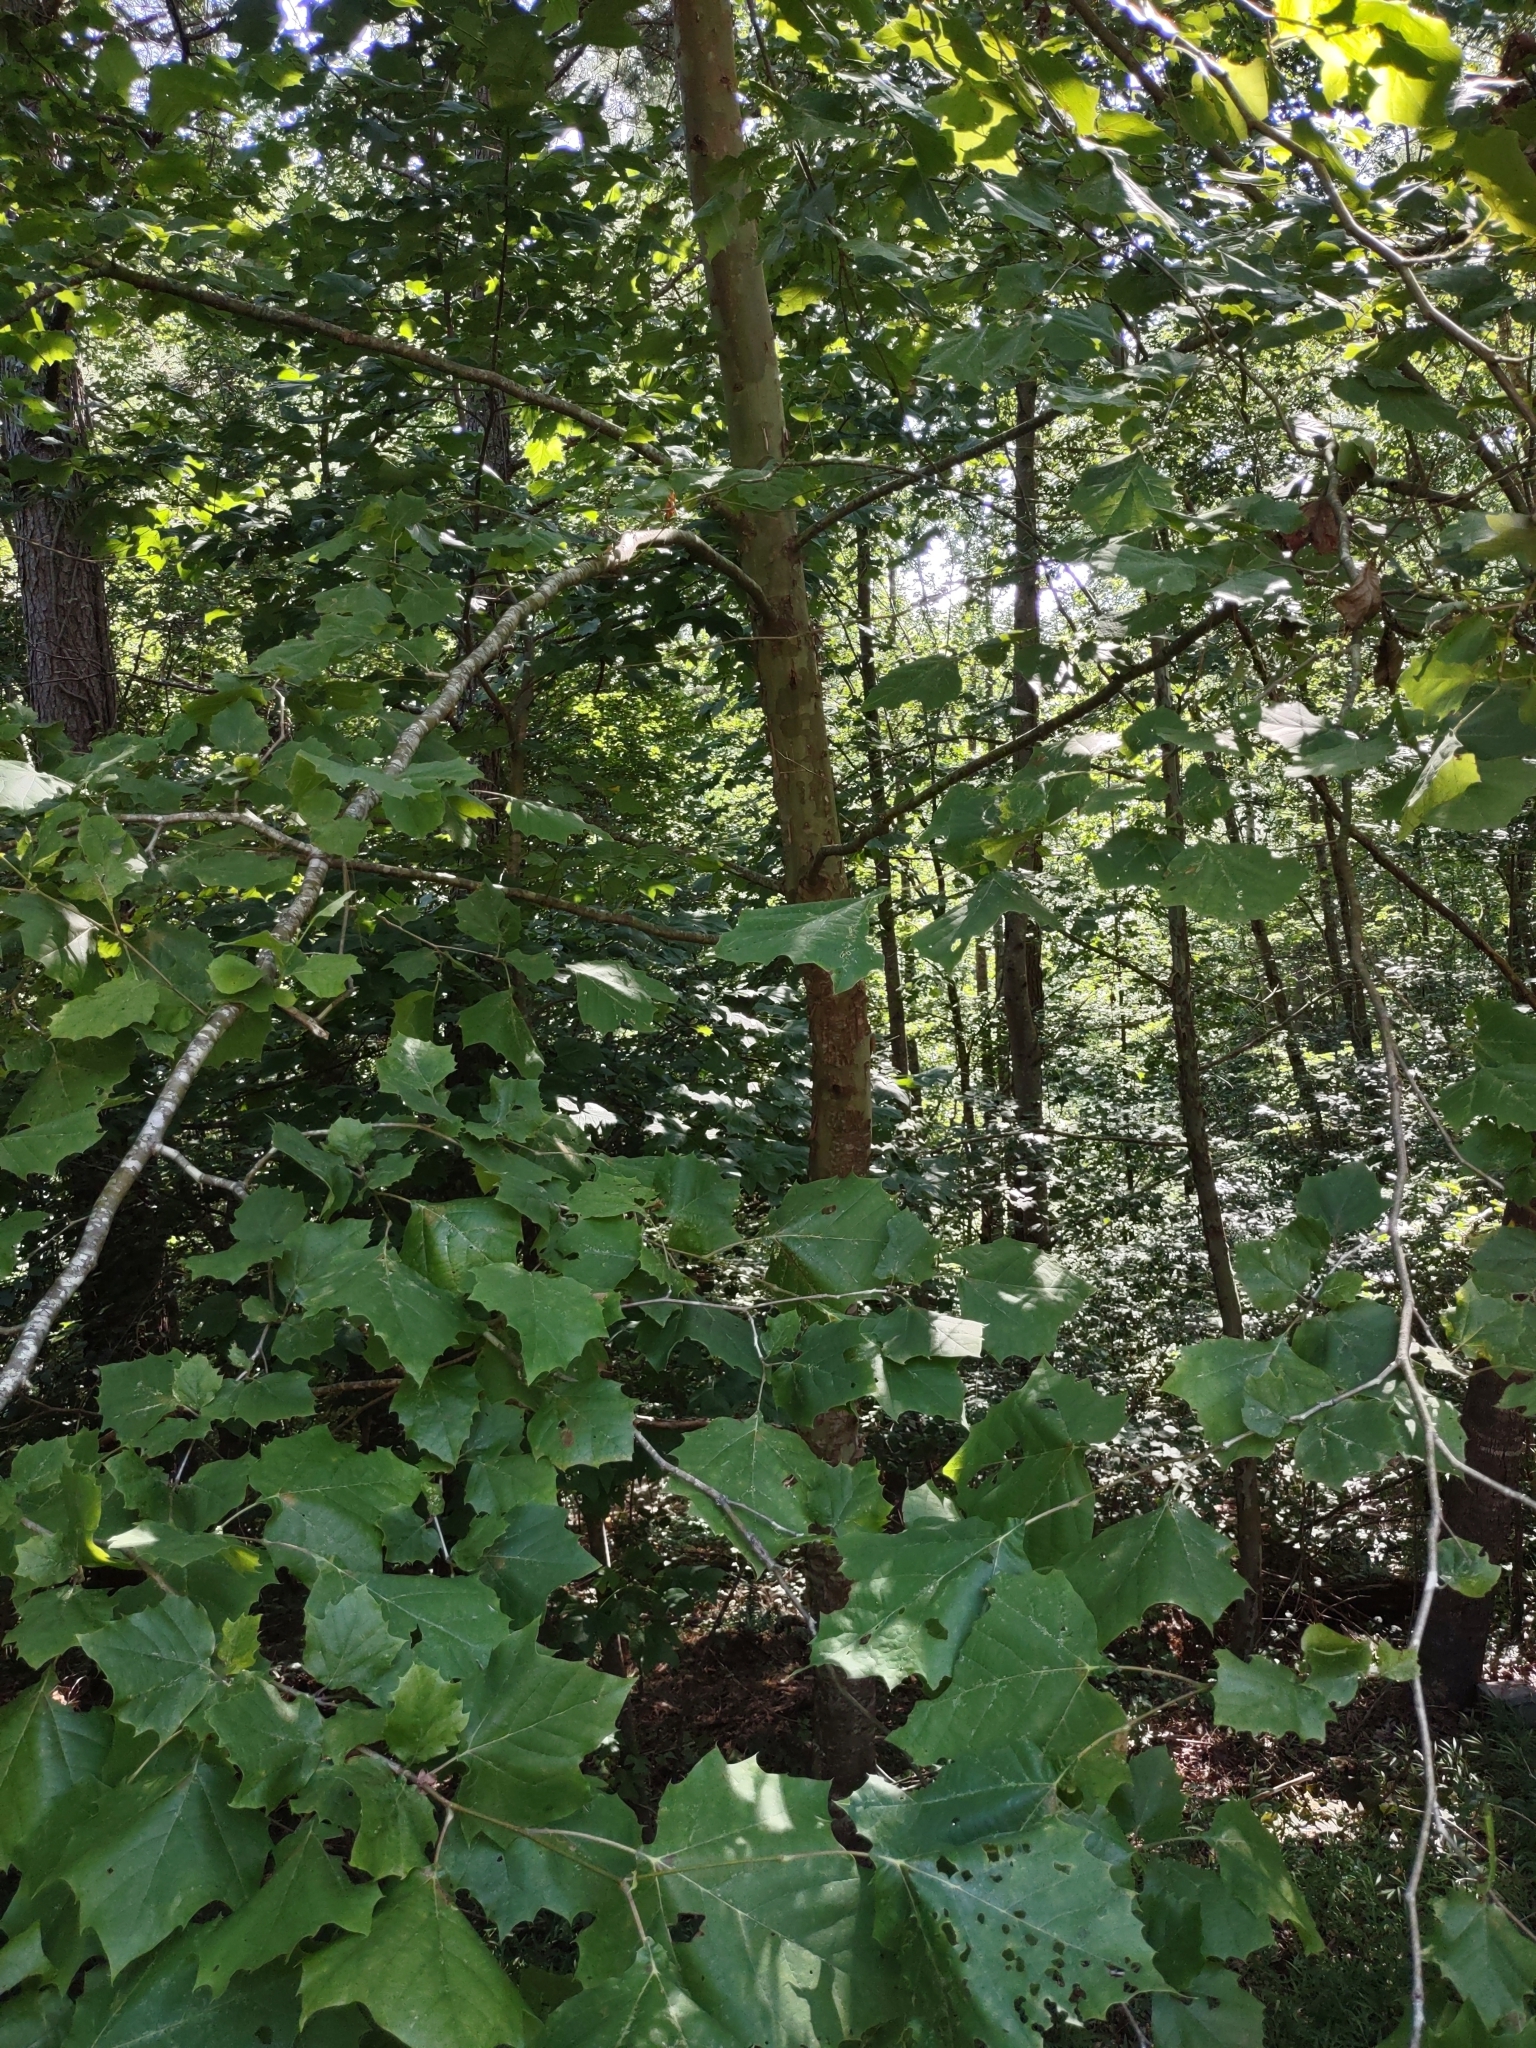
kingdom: Plantae
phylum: Tracheophyta
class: Magnoliopsida
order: Proteales
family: Platanaceae
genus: Platanus
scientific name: Platanus occidentalis
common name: American sycamore
